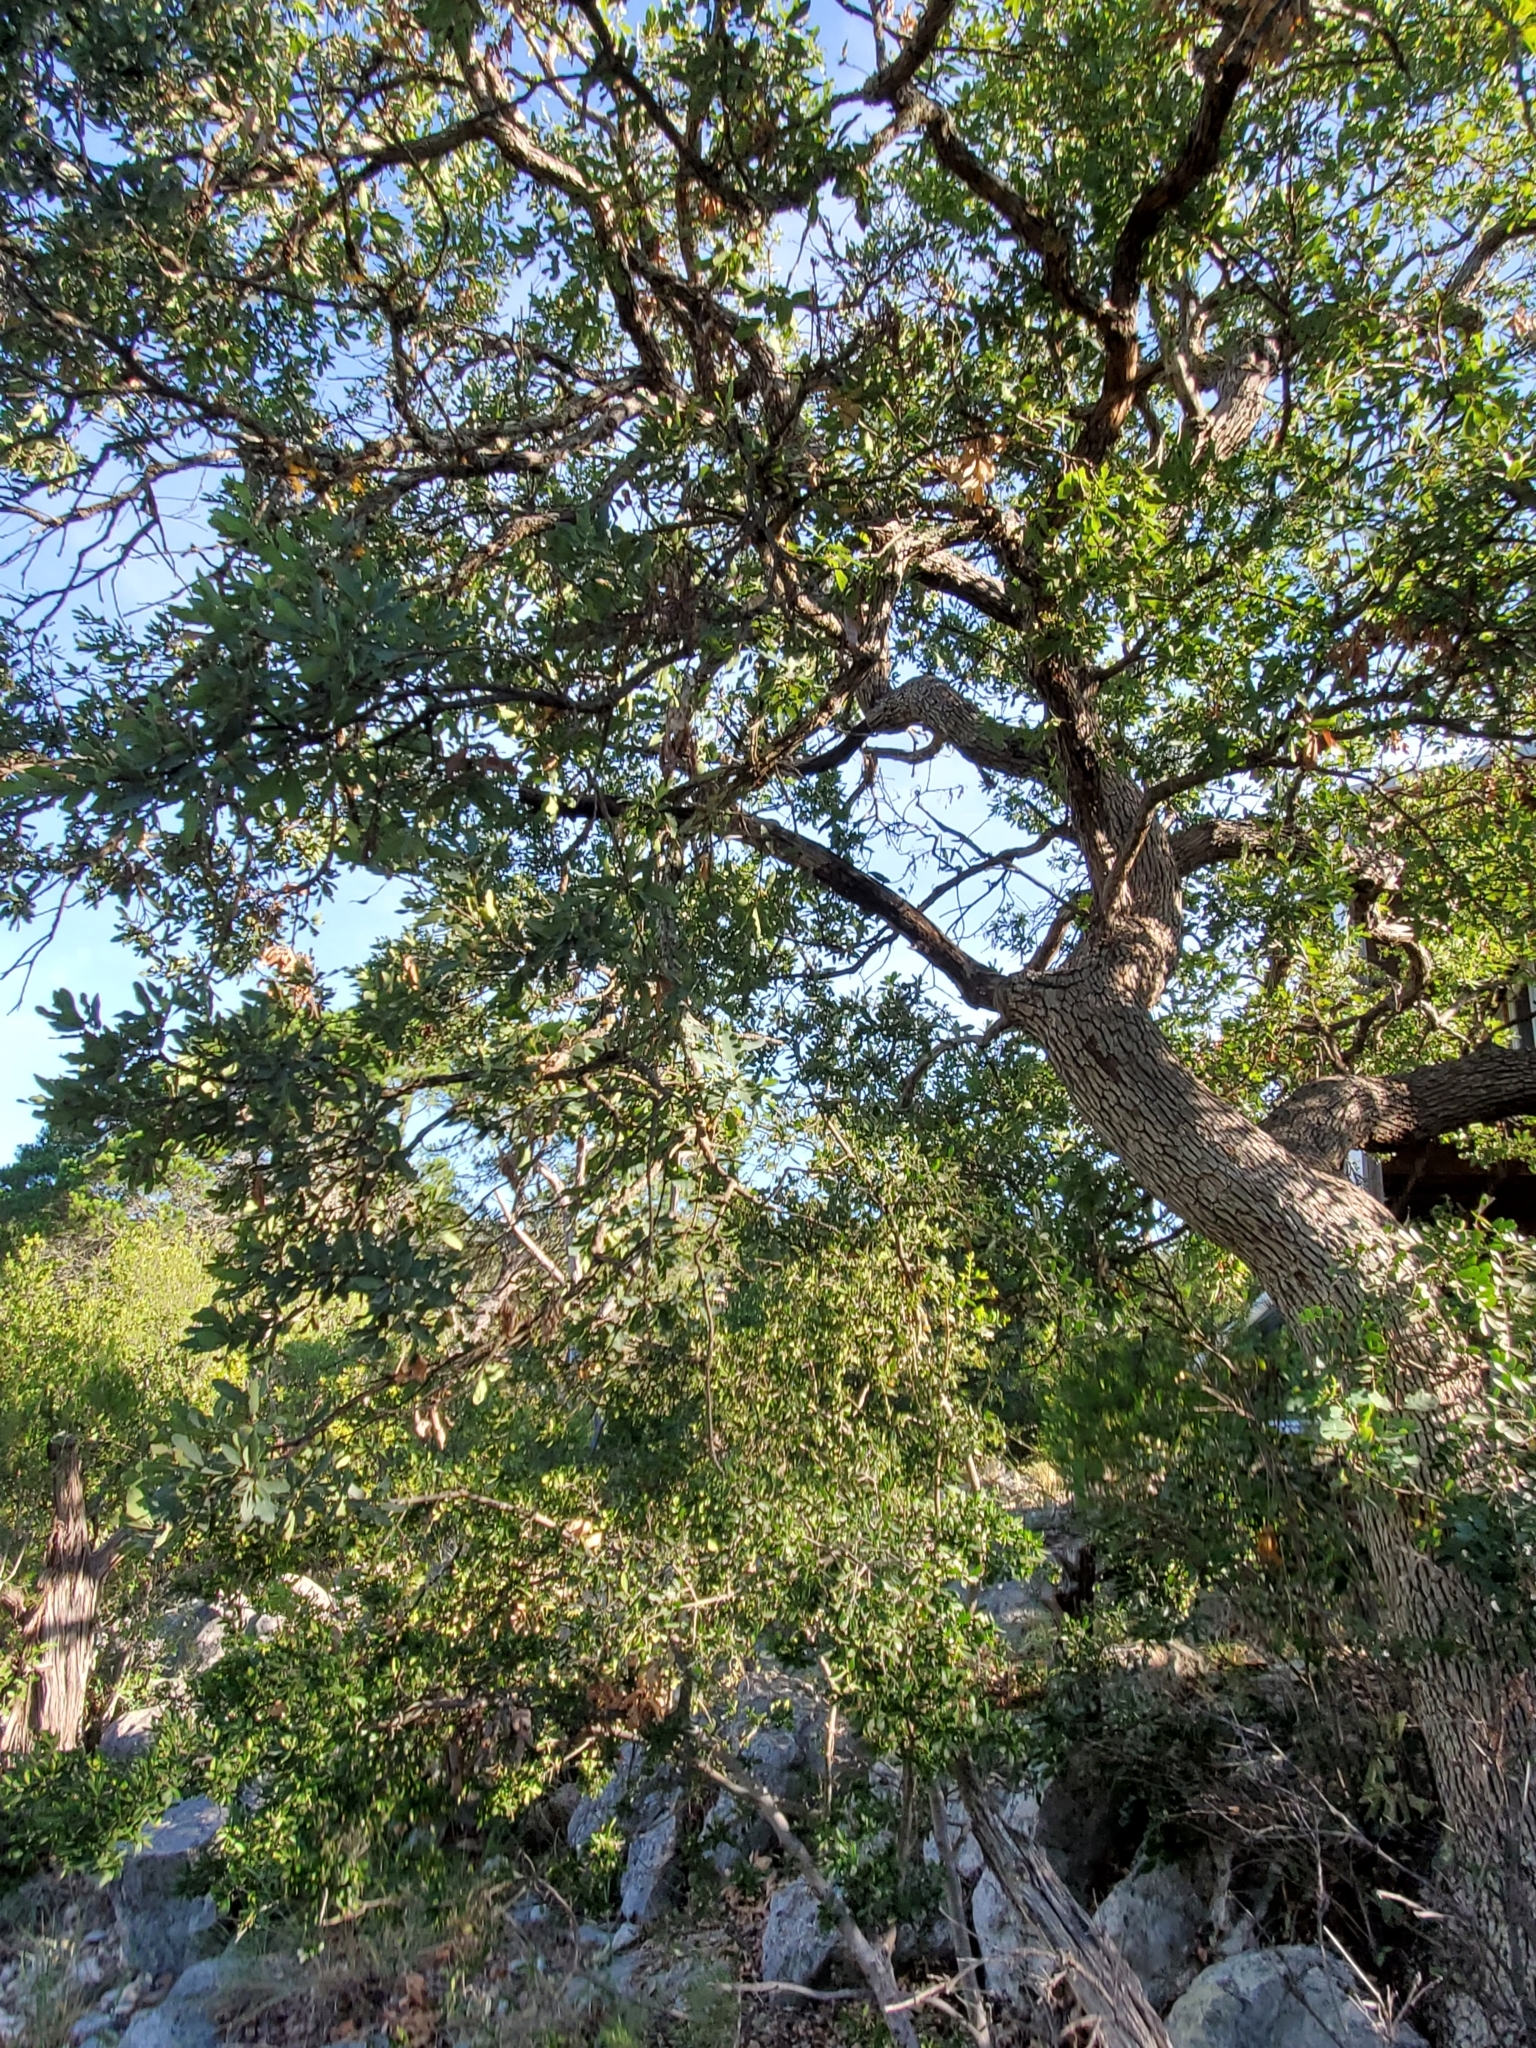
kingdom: Plantae
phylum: Tracheophyta
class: Magnoliopsida
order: Fagales
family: Fagaceae
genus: Quercus
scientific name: Quercus laceyi
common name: Lacey oak
